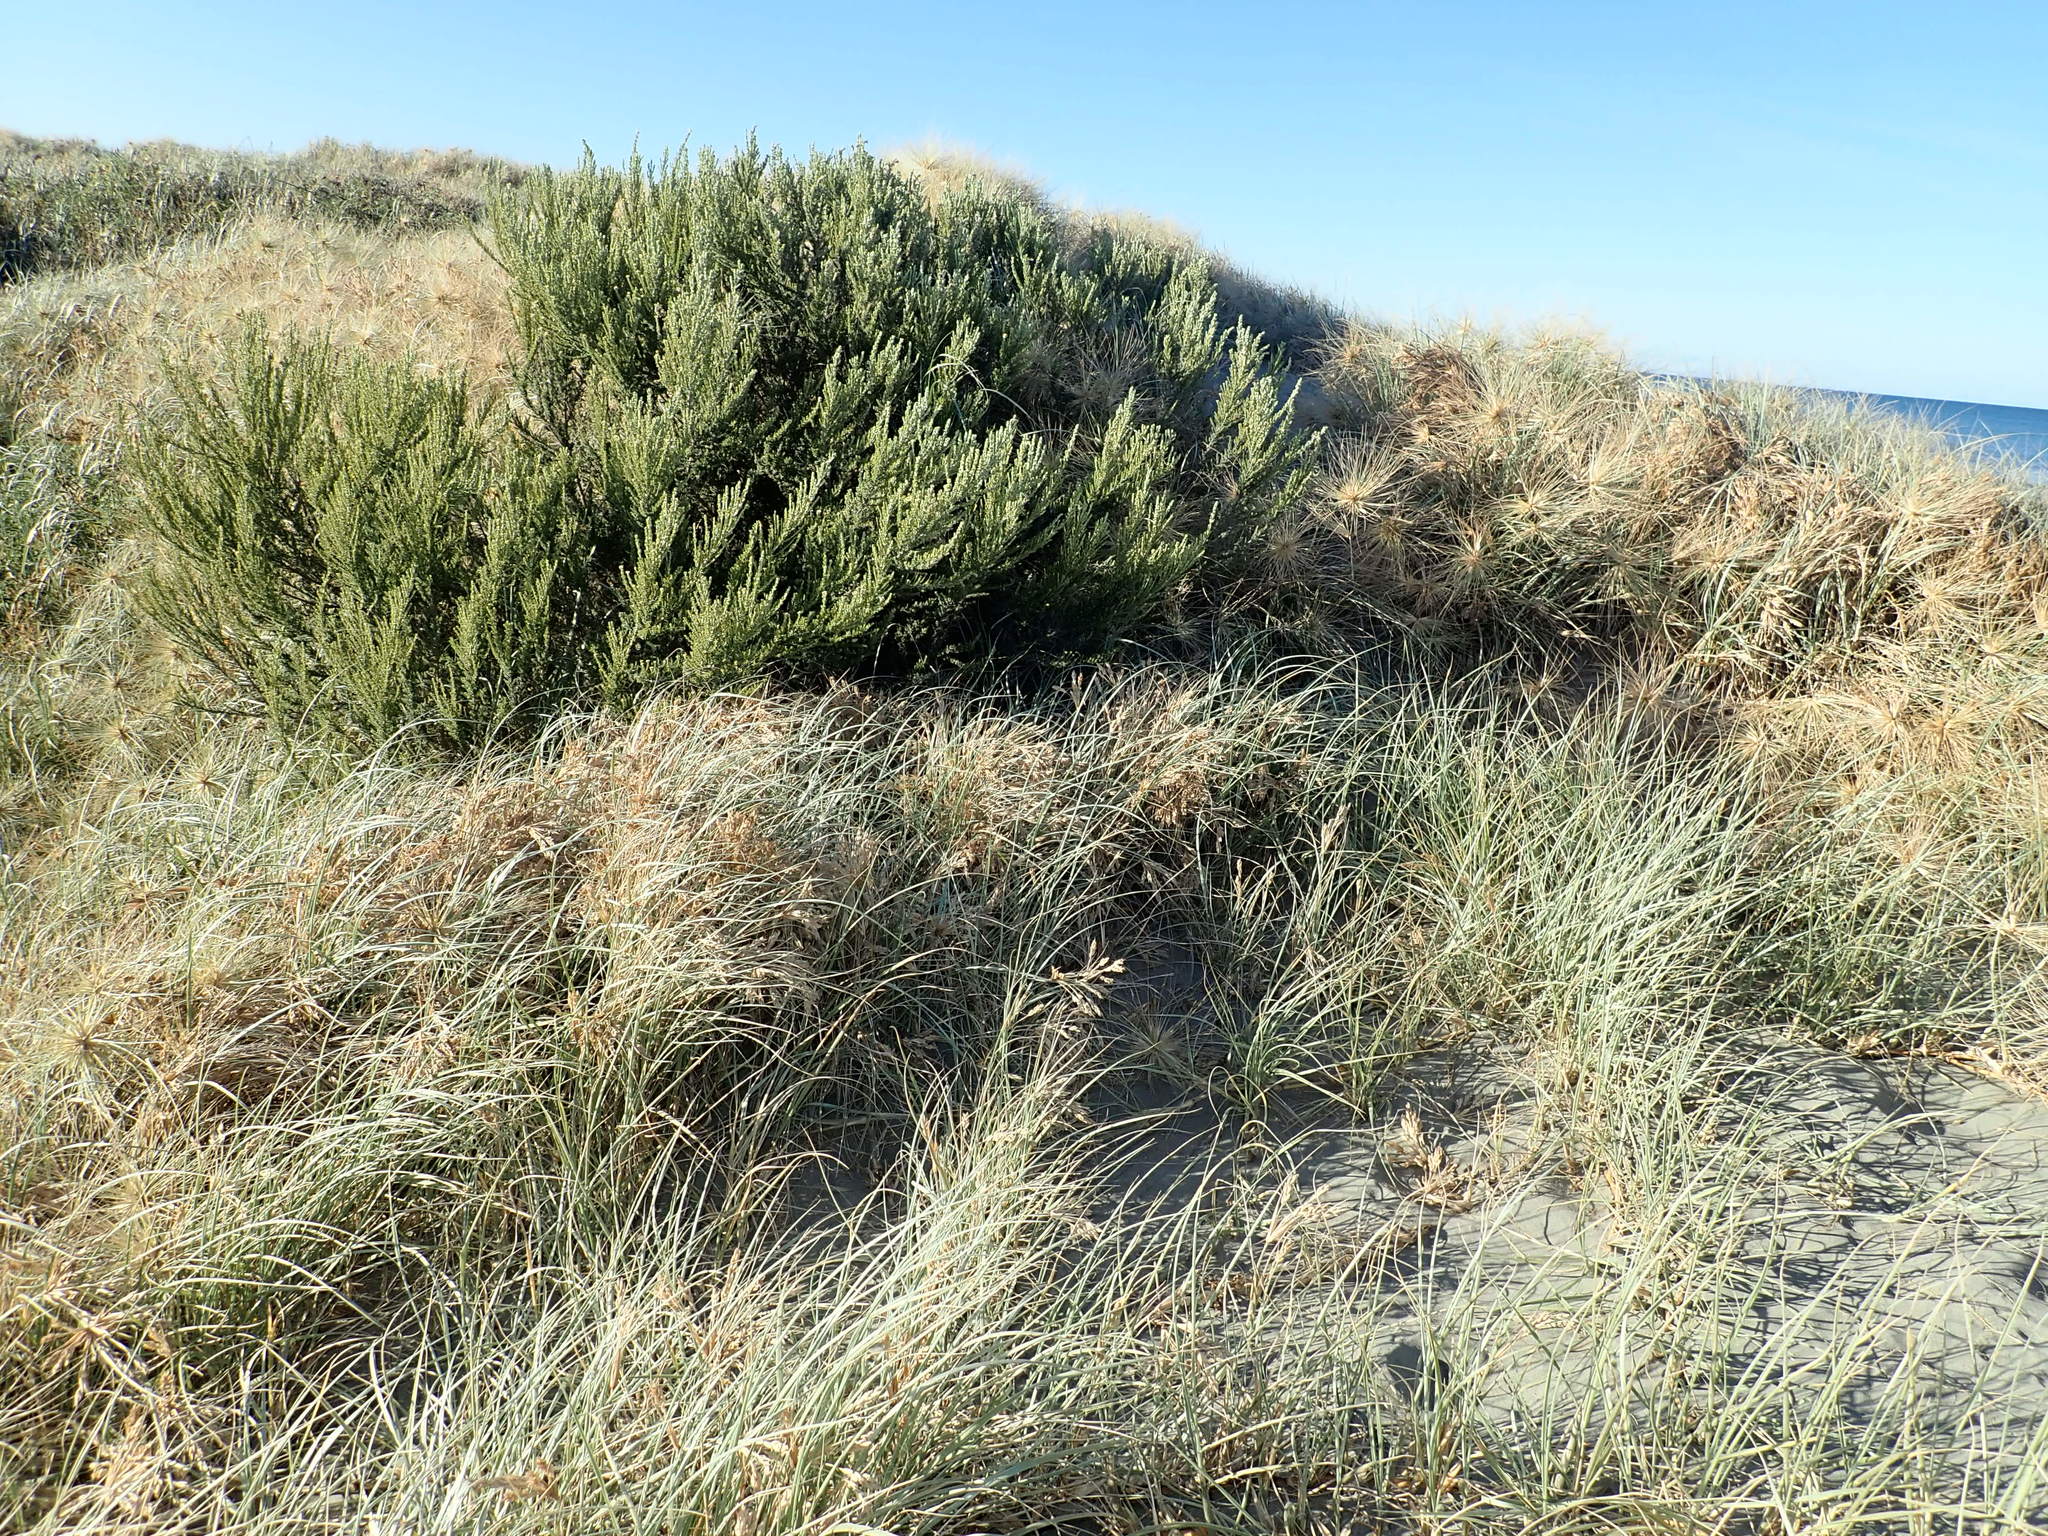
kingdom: Plantae
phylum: Tracheophyta
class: Magnoliopsida
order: Asterales
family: Asteraceae
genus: Ozothamnus
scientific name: Ozothamnus leptophyllus
